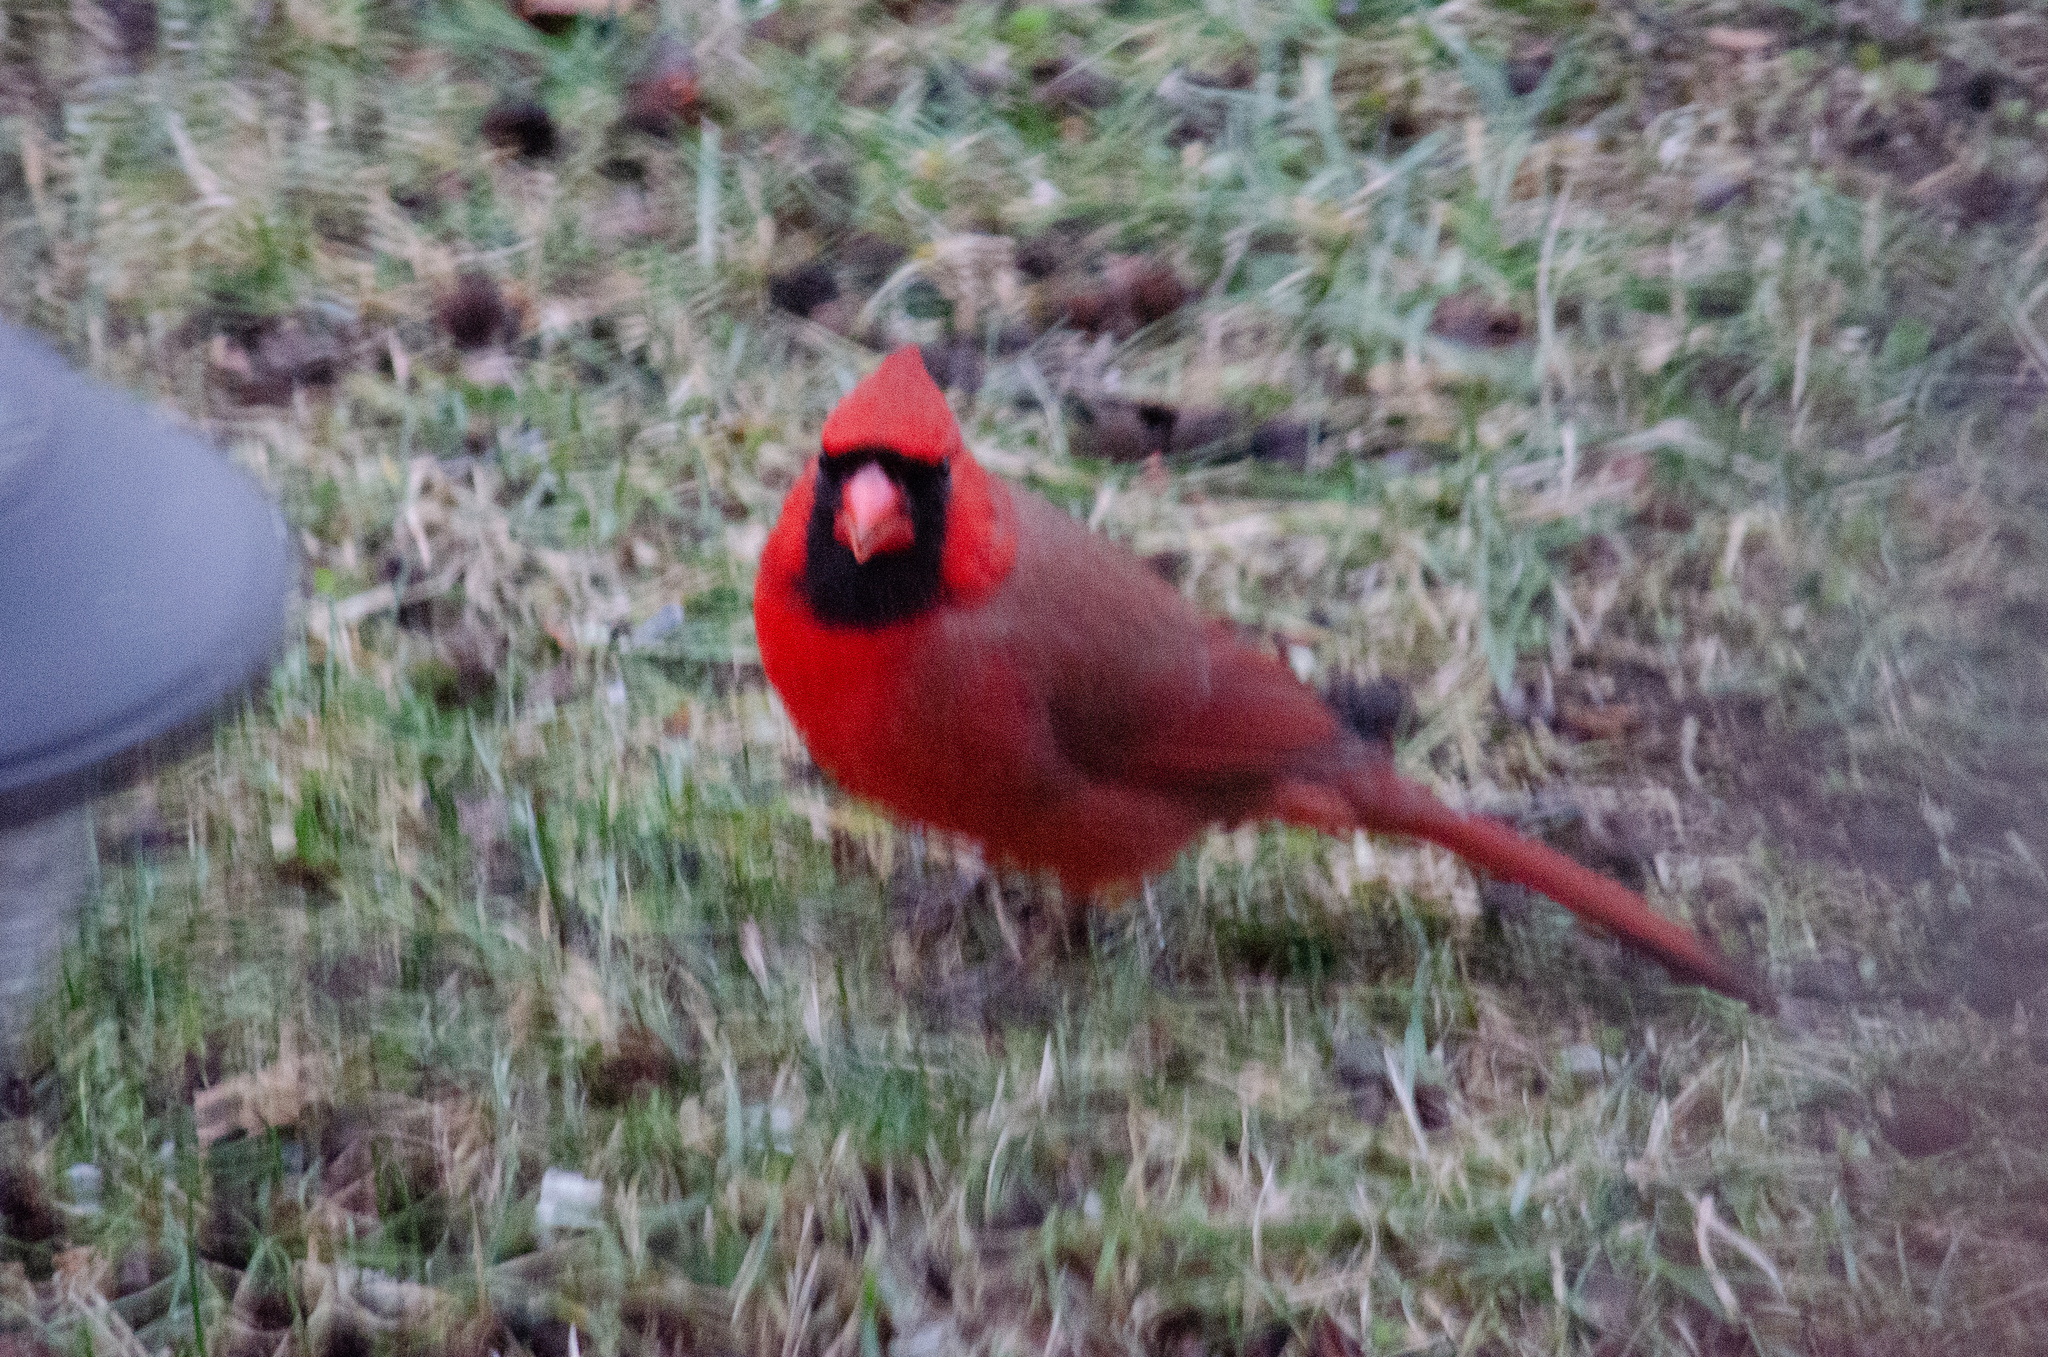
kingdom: Animalia
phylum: Chordata
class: Aves
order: Passeriformes
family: Cardinalidae
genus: Cardinalis
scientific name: Cardinalis cardinalis
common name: Northern cardinal
